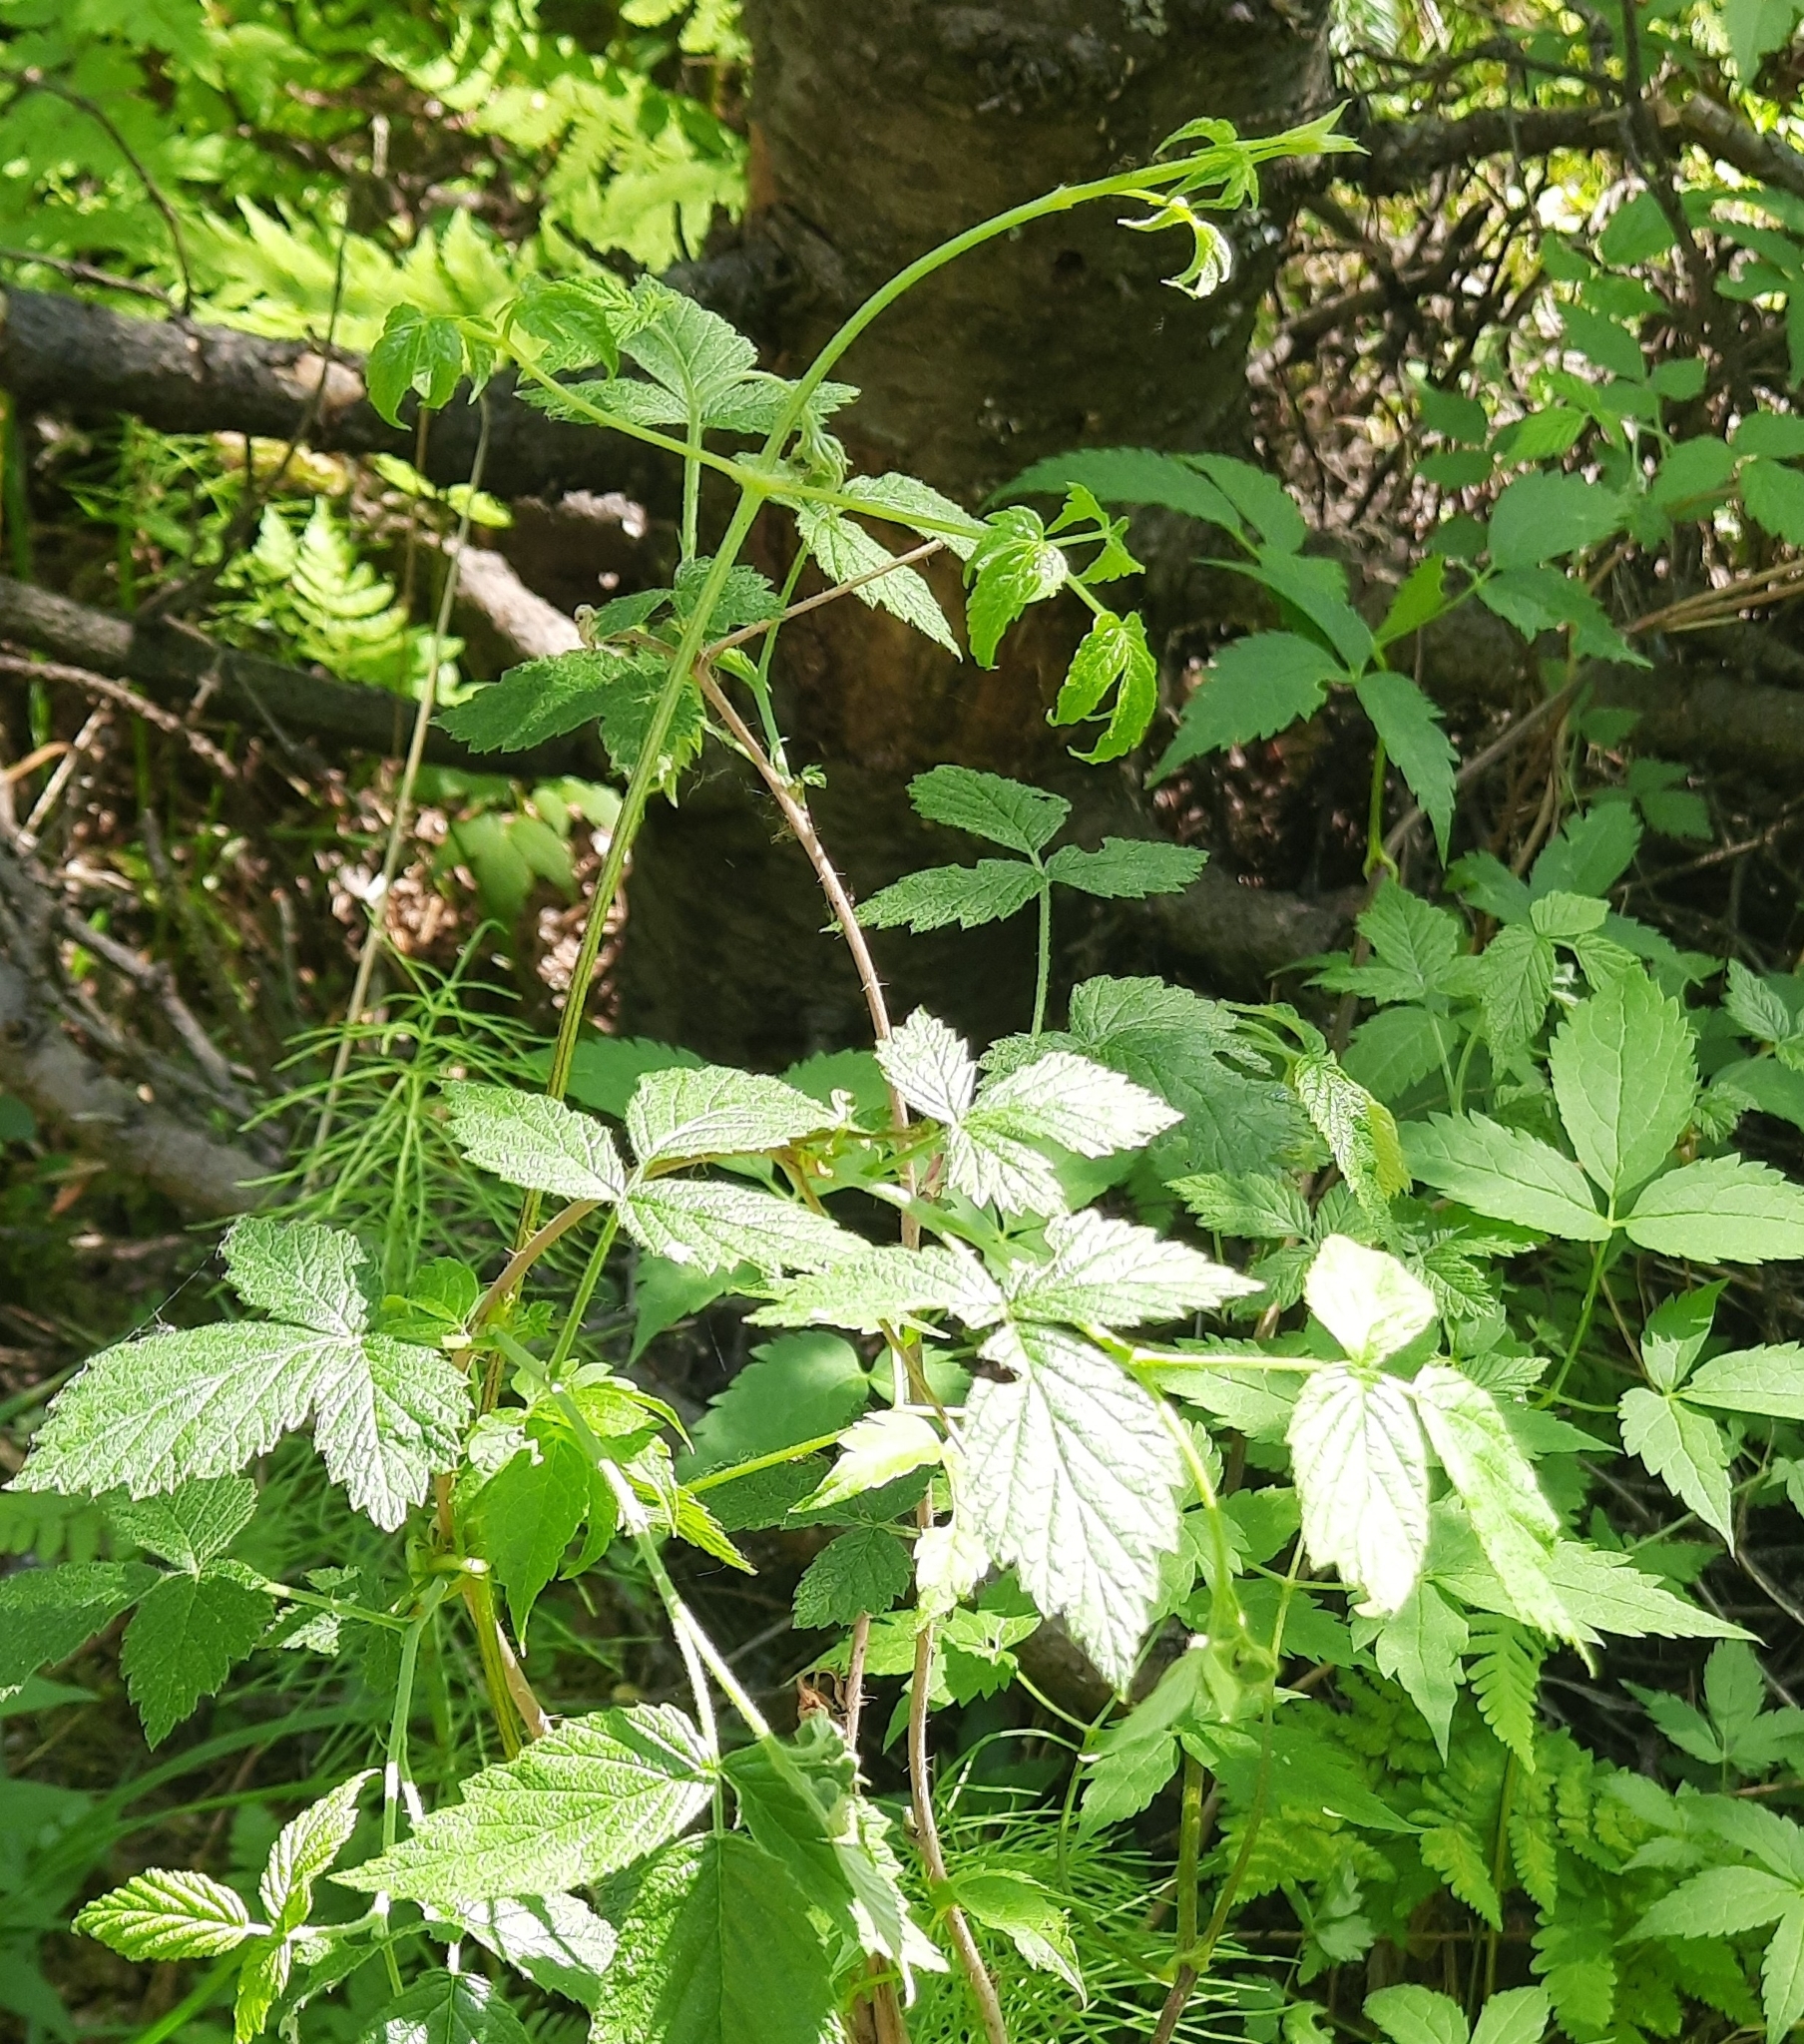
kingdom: Plantae
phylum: Tracheophyta
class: Magnoliopsida
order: Ranunculales
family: Ranunculaceae
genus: Clematis
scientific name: Clematis sibirica
